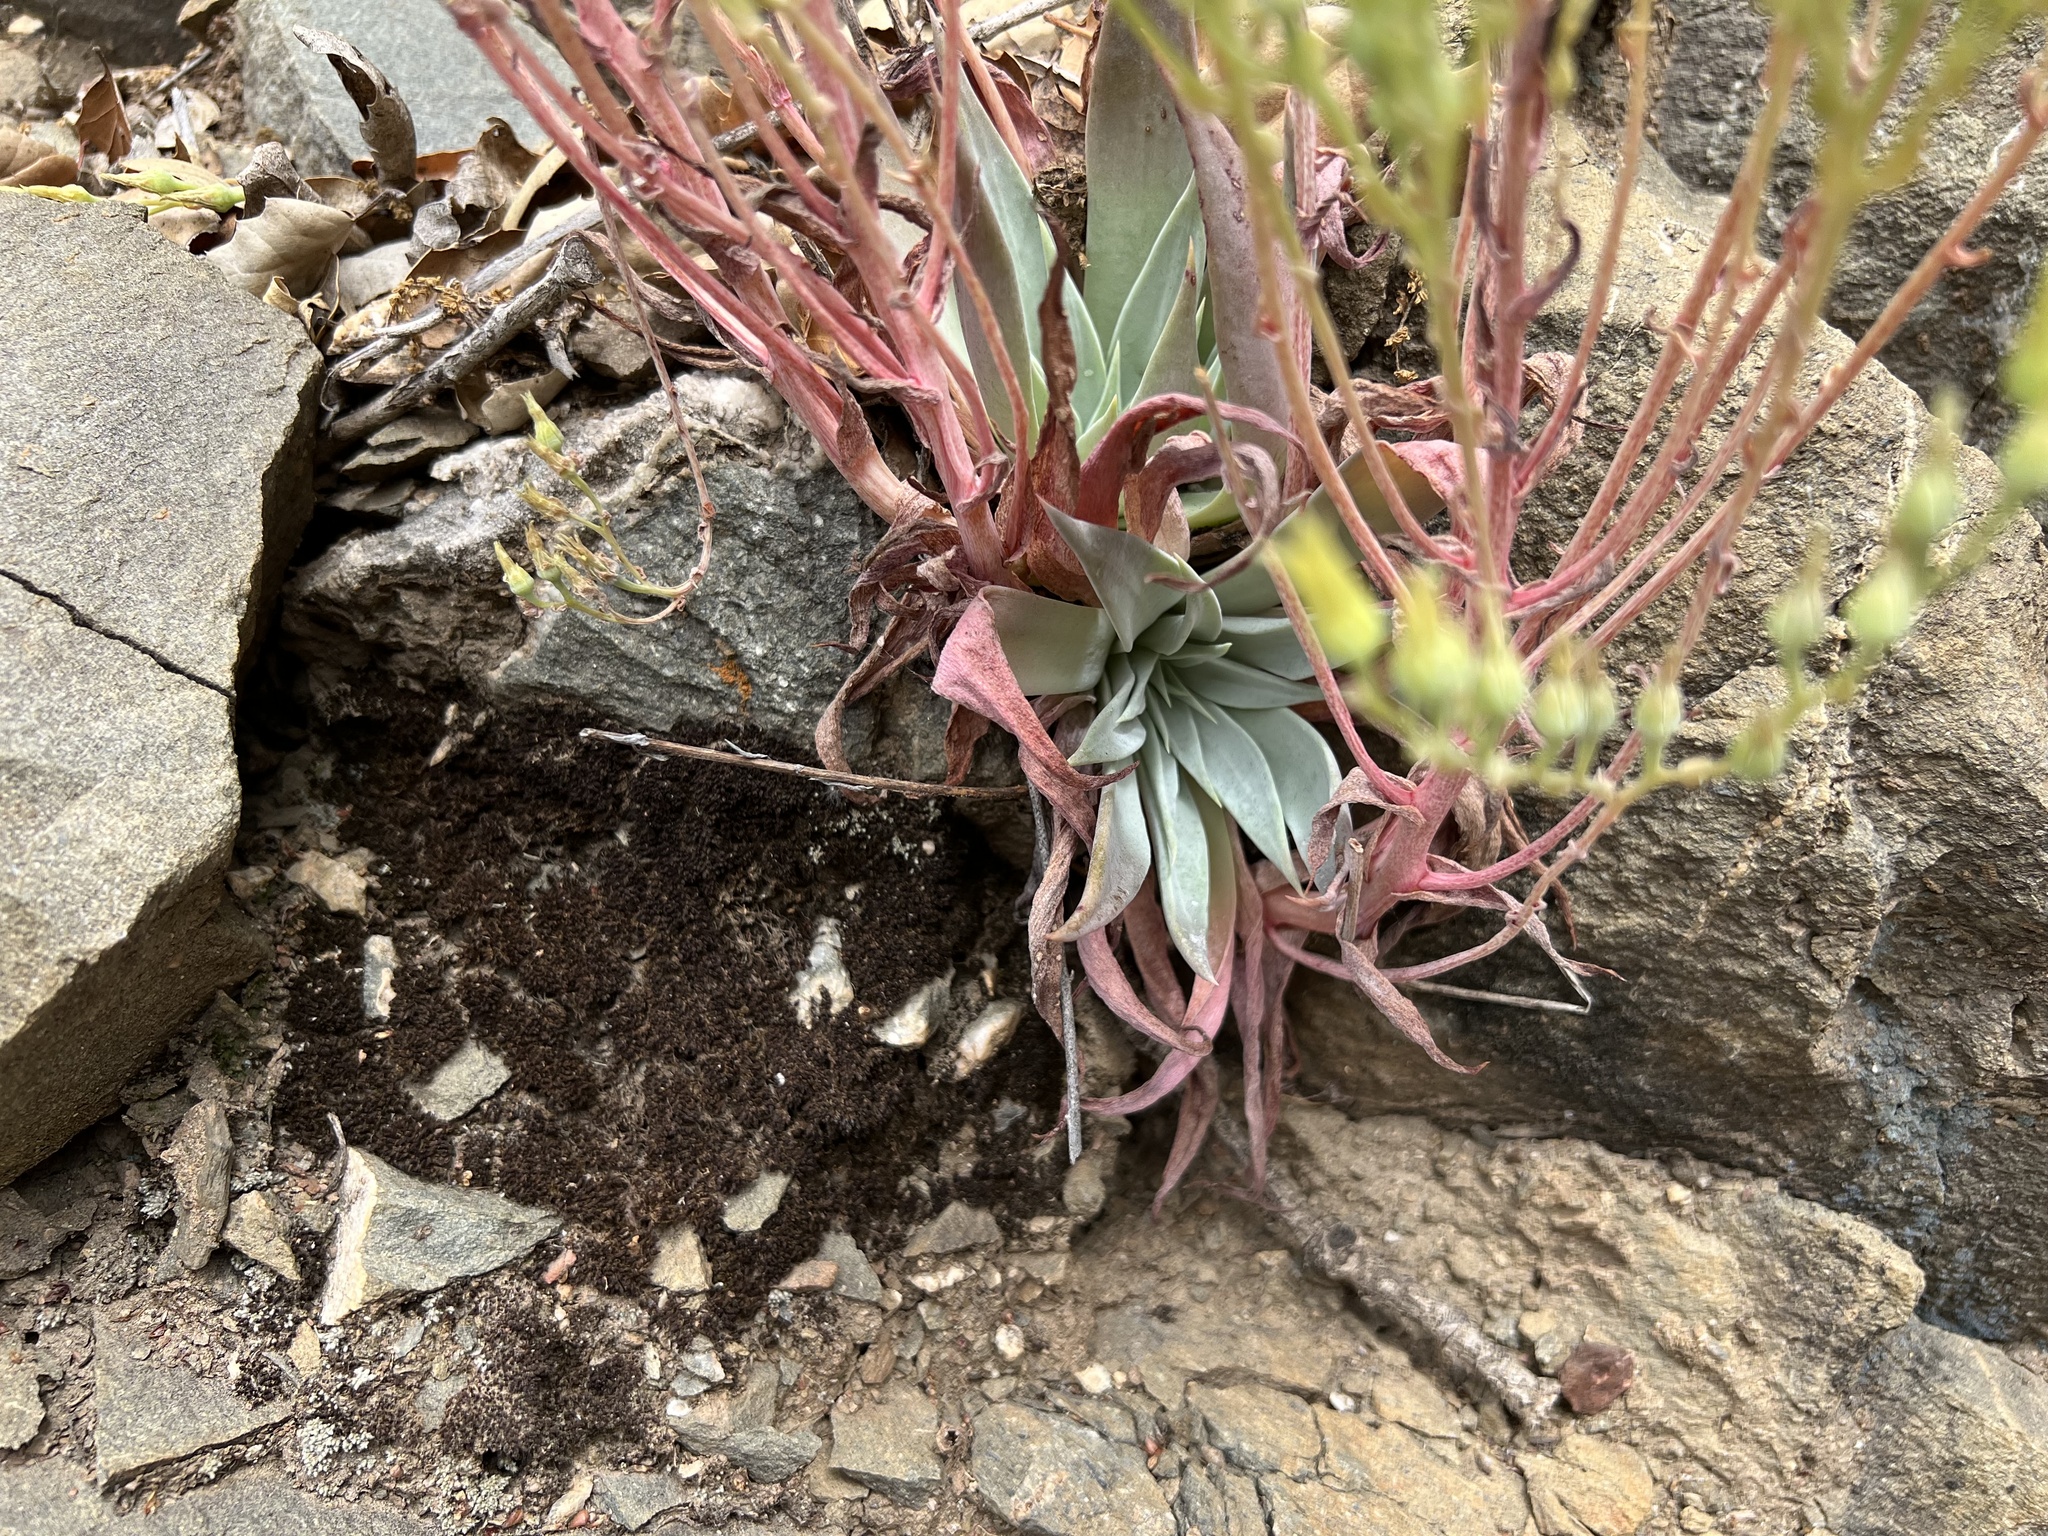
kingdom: Plantae
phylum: Tracheophyta
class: Magnoliopsida
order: Saxifragales
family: Crassulaceae
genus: Dudleya
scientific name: Dudleya cymosa
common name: Canyon dudleya
